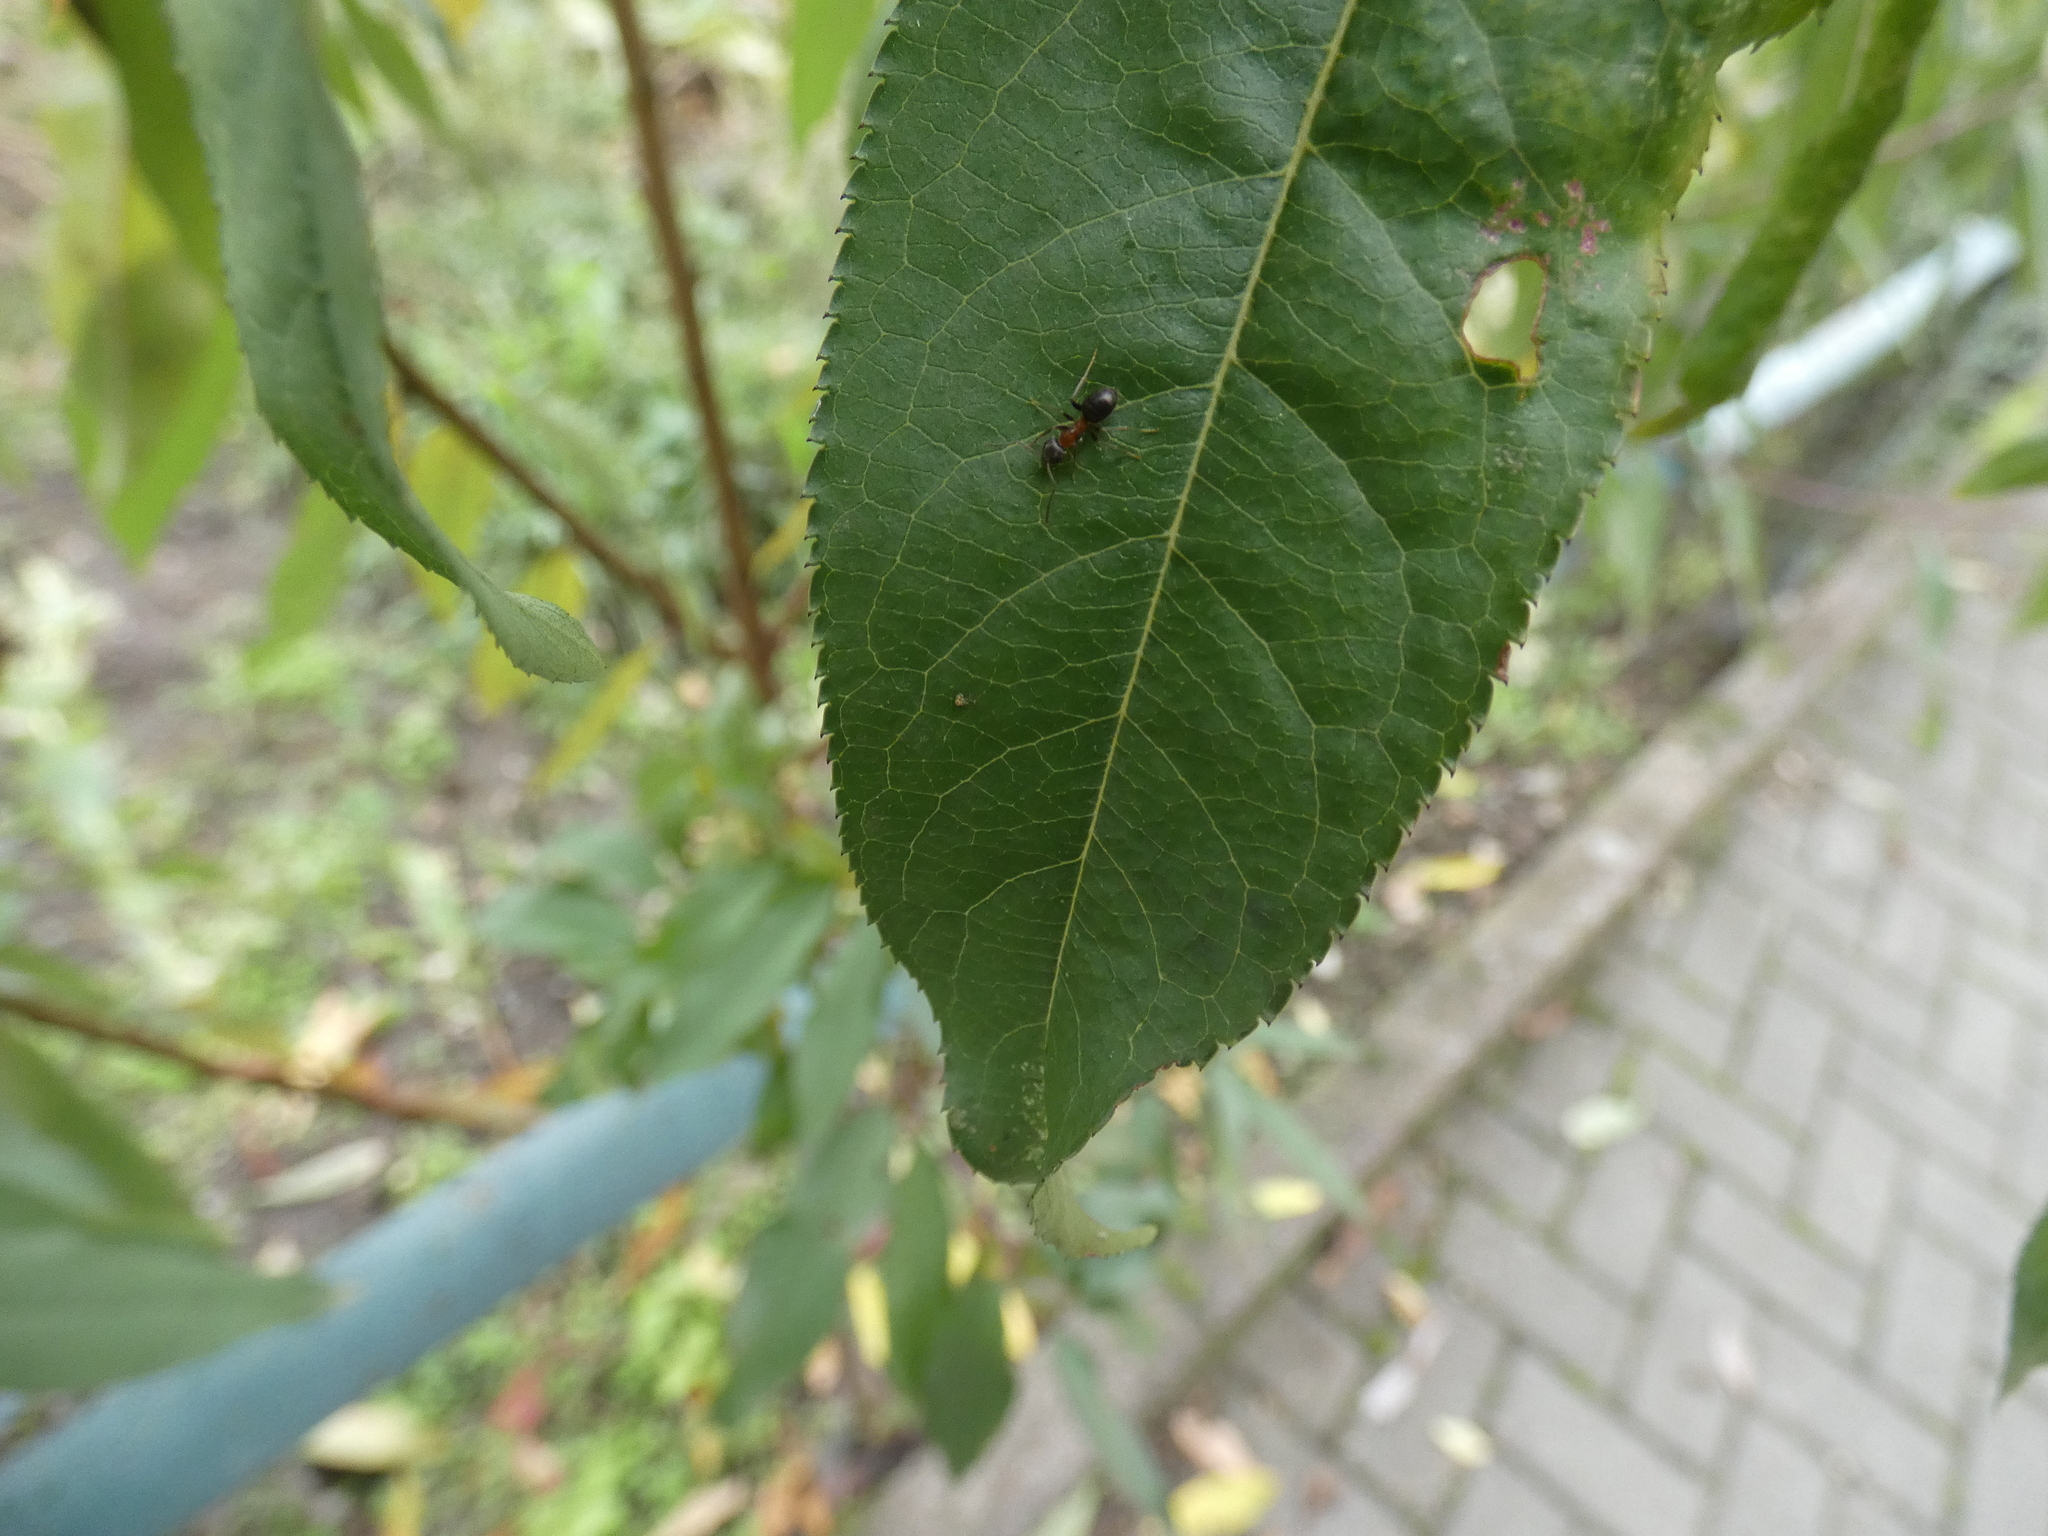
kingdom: Animalia
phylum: Arthropoda
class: Insecta
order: Hymenoptera
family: Formicidae
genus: Lasius
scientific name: Lasius emarginatus
